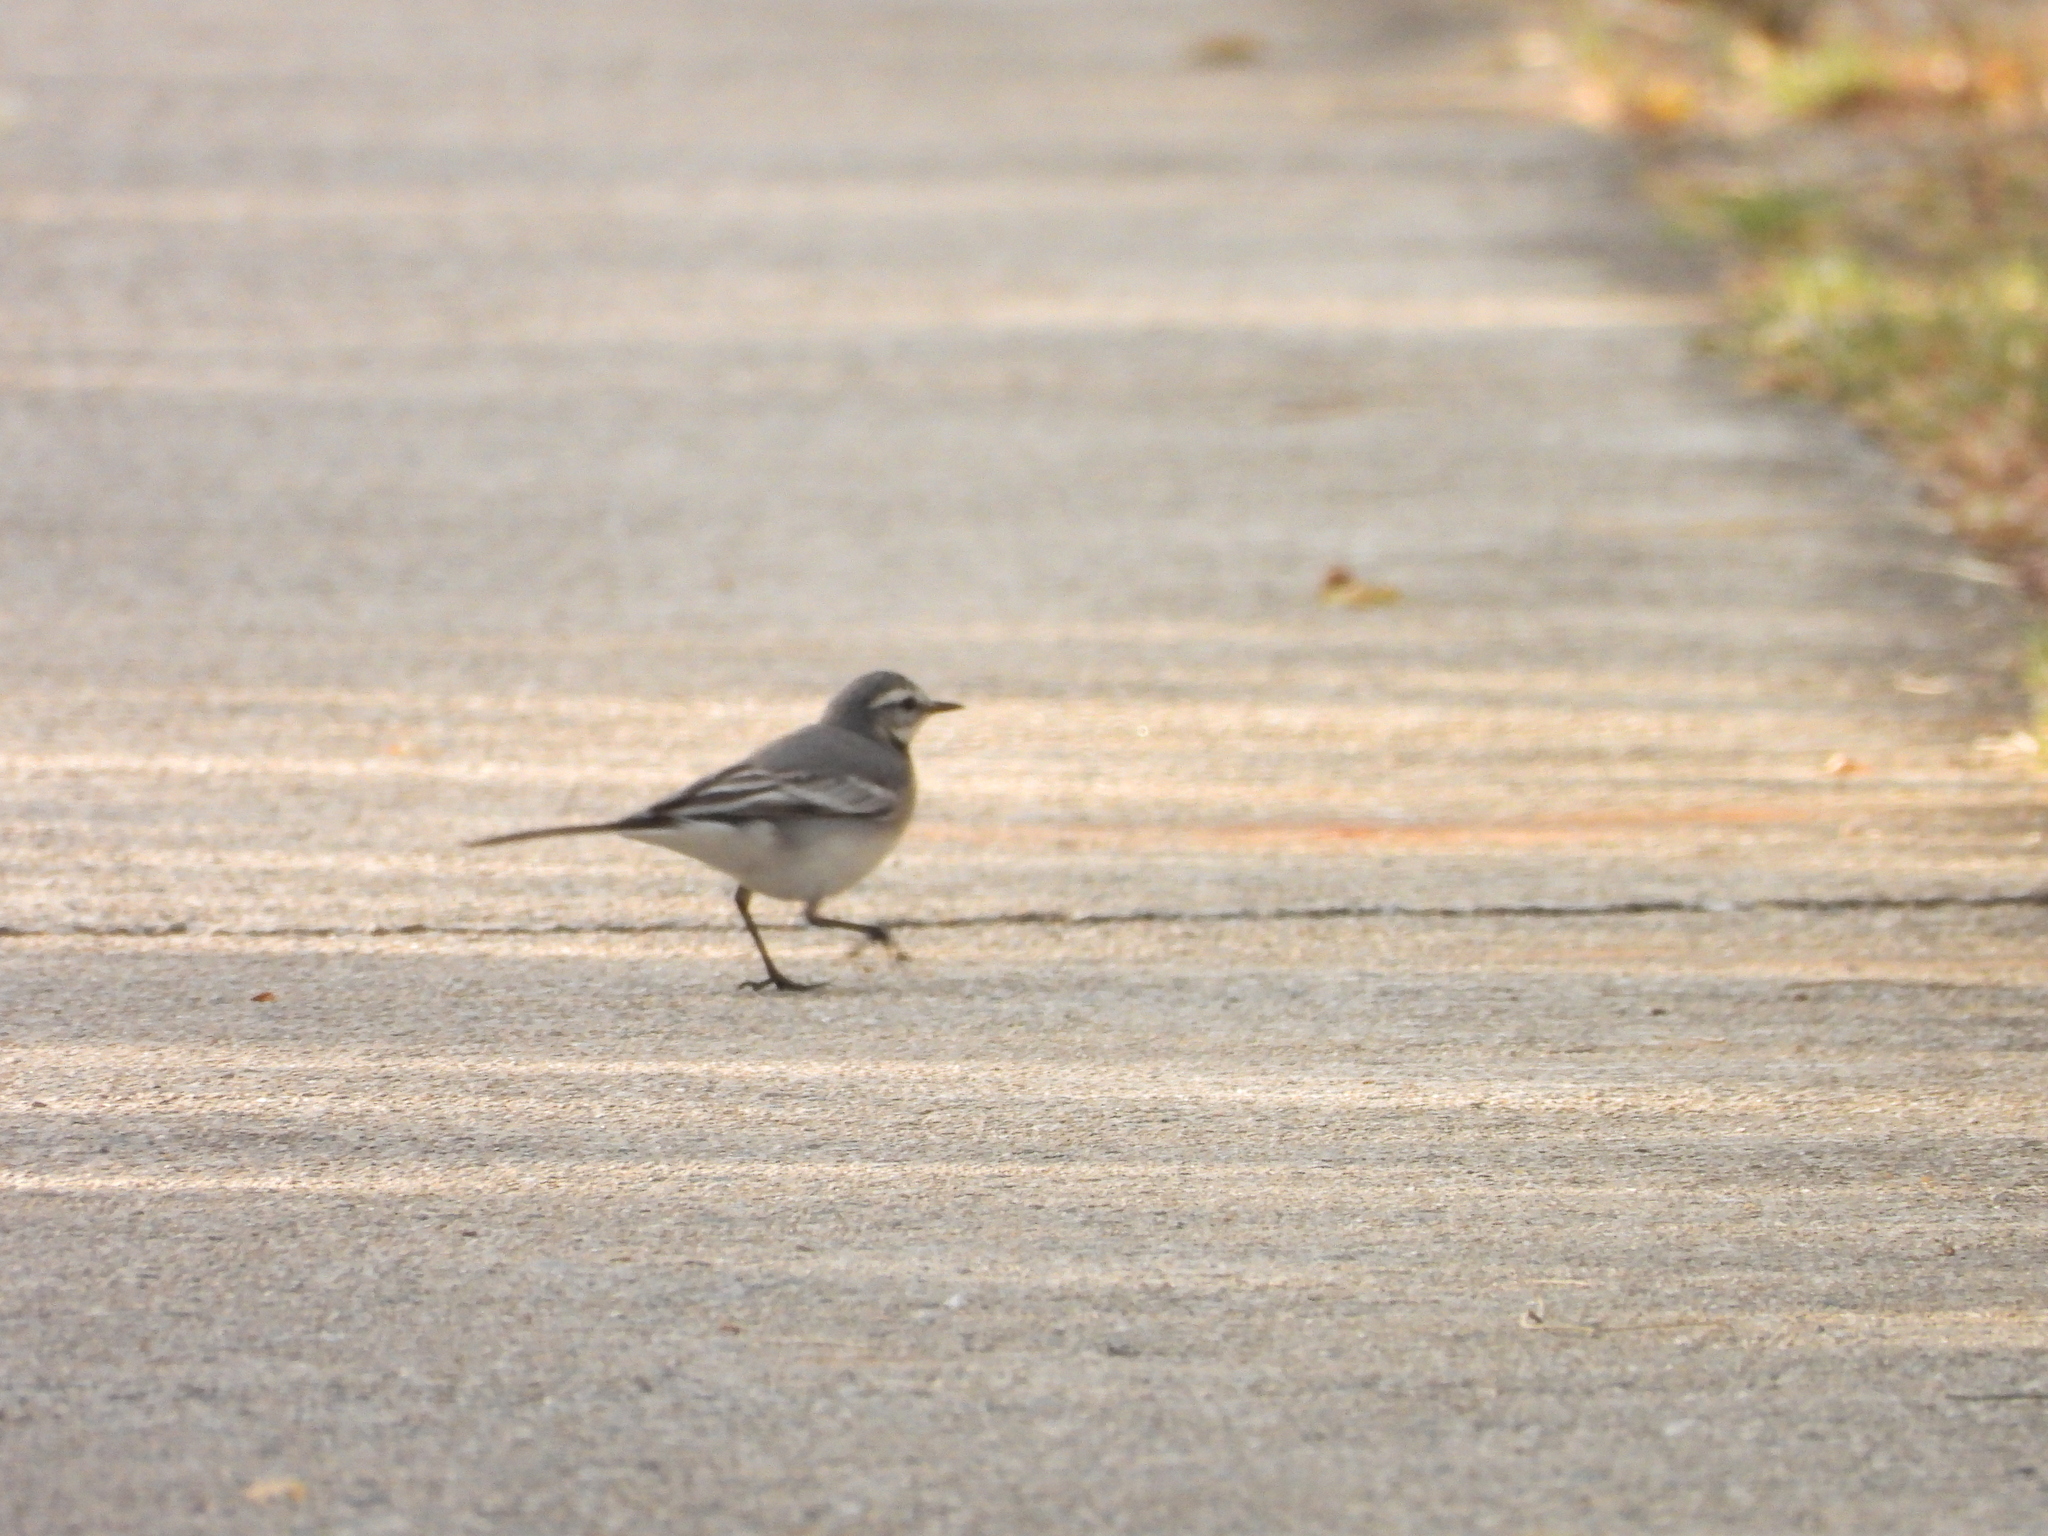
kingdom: Animalia
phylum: Chordata
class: Aves
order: Passeriformes
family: Motacillidae
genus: Motacilla
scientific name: Motacilla alba
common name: White wagtail
